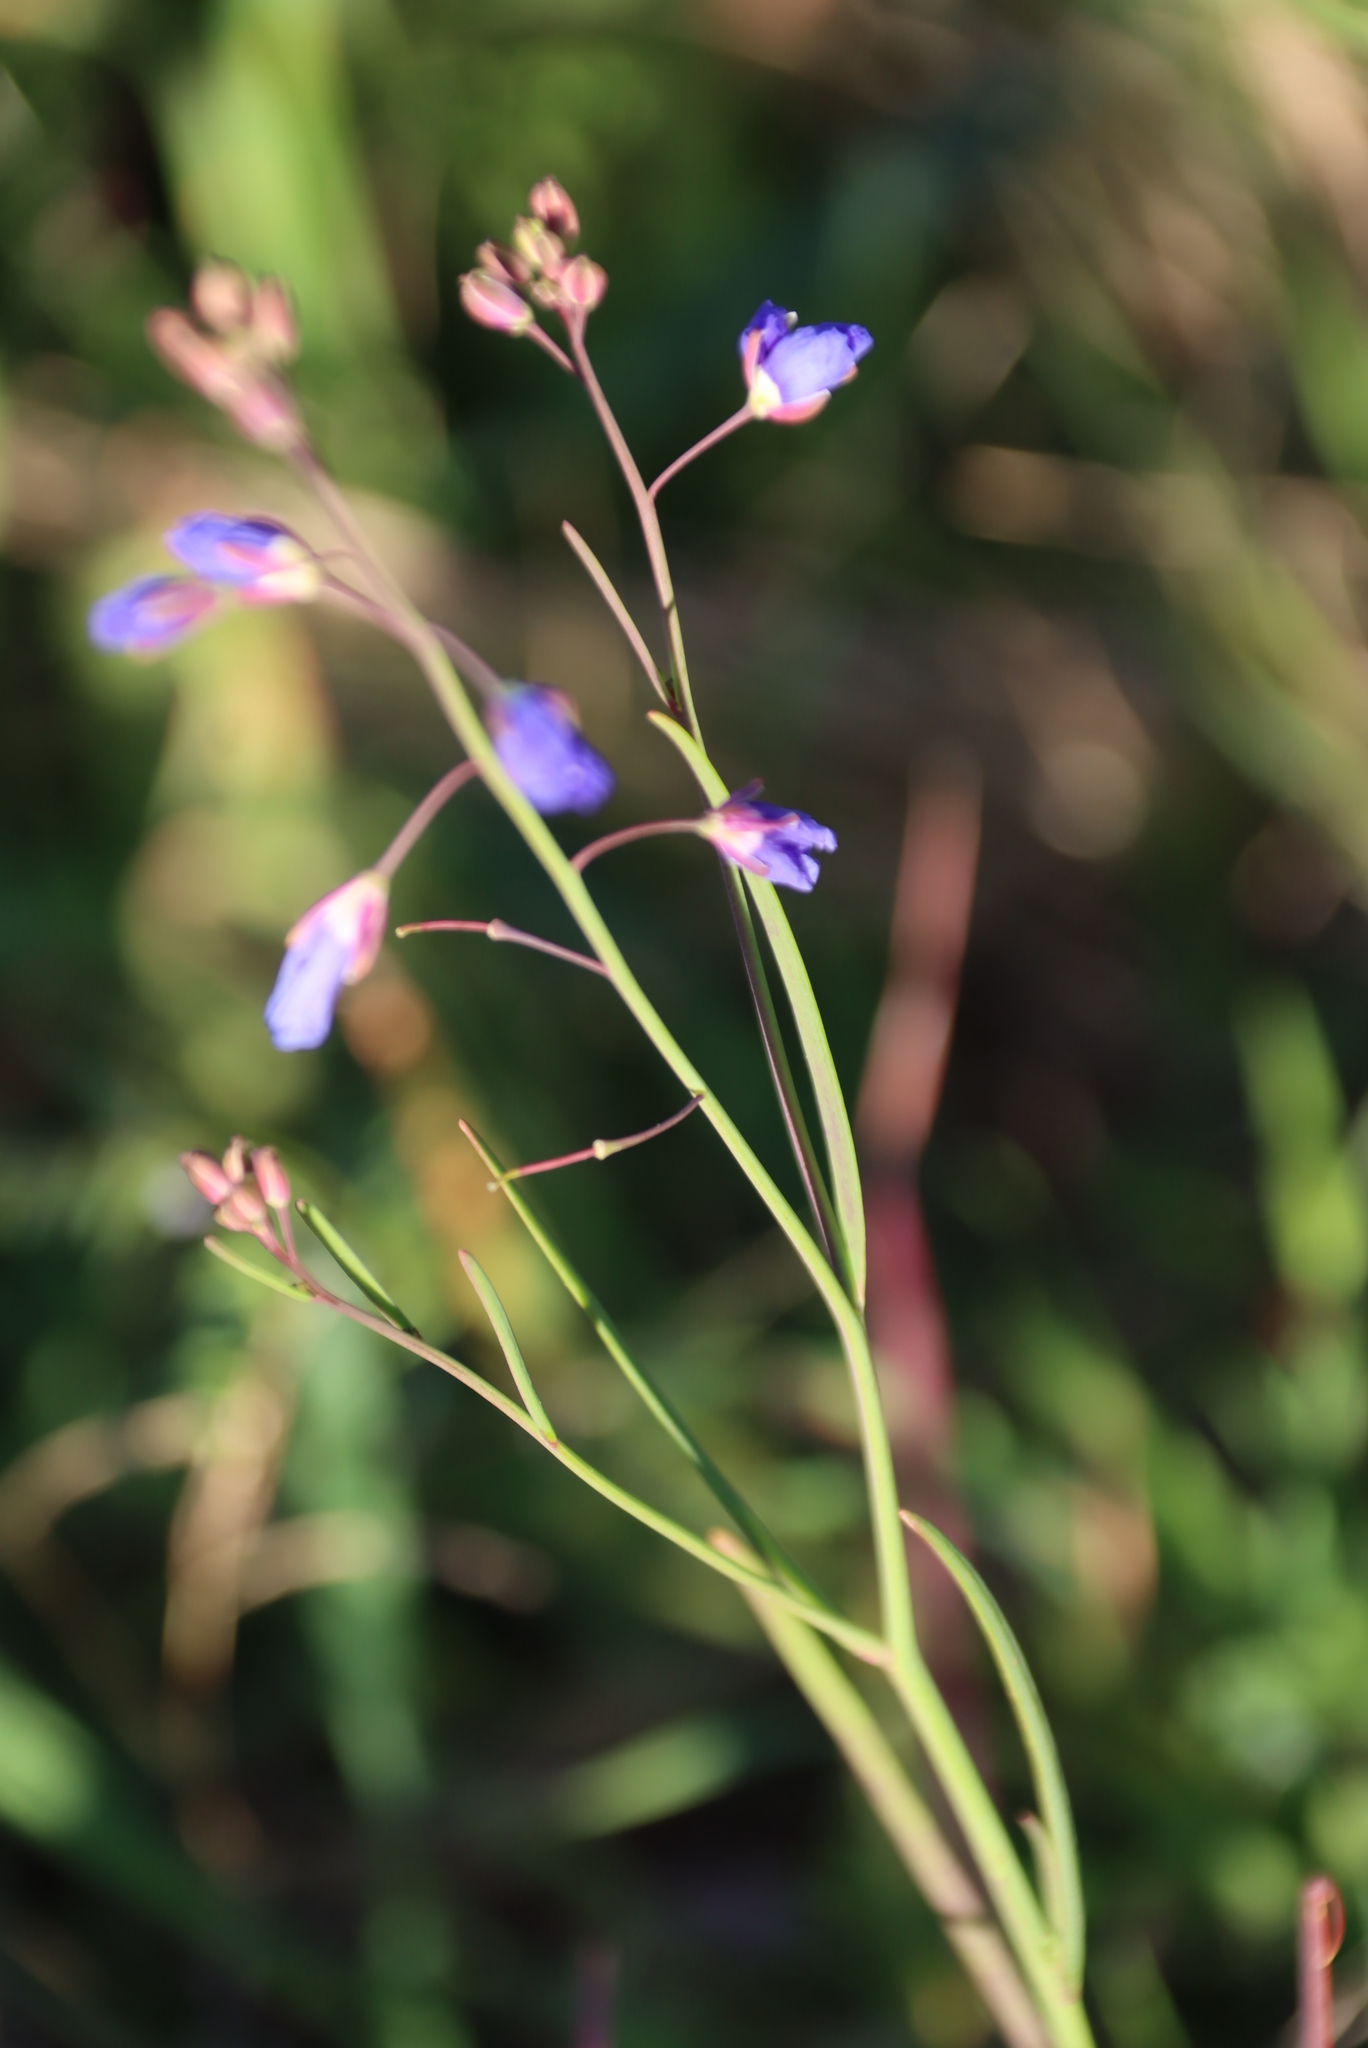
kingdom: Plantae
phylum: Tracheophyta
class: Magnoliopsida
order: Brassicales
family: Brassicaceae
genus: Heliophila
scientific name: Heliophila coronopifolia
